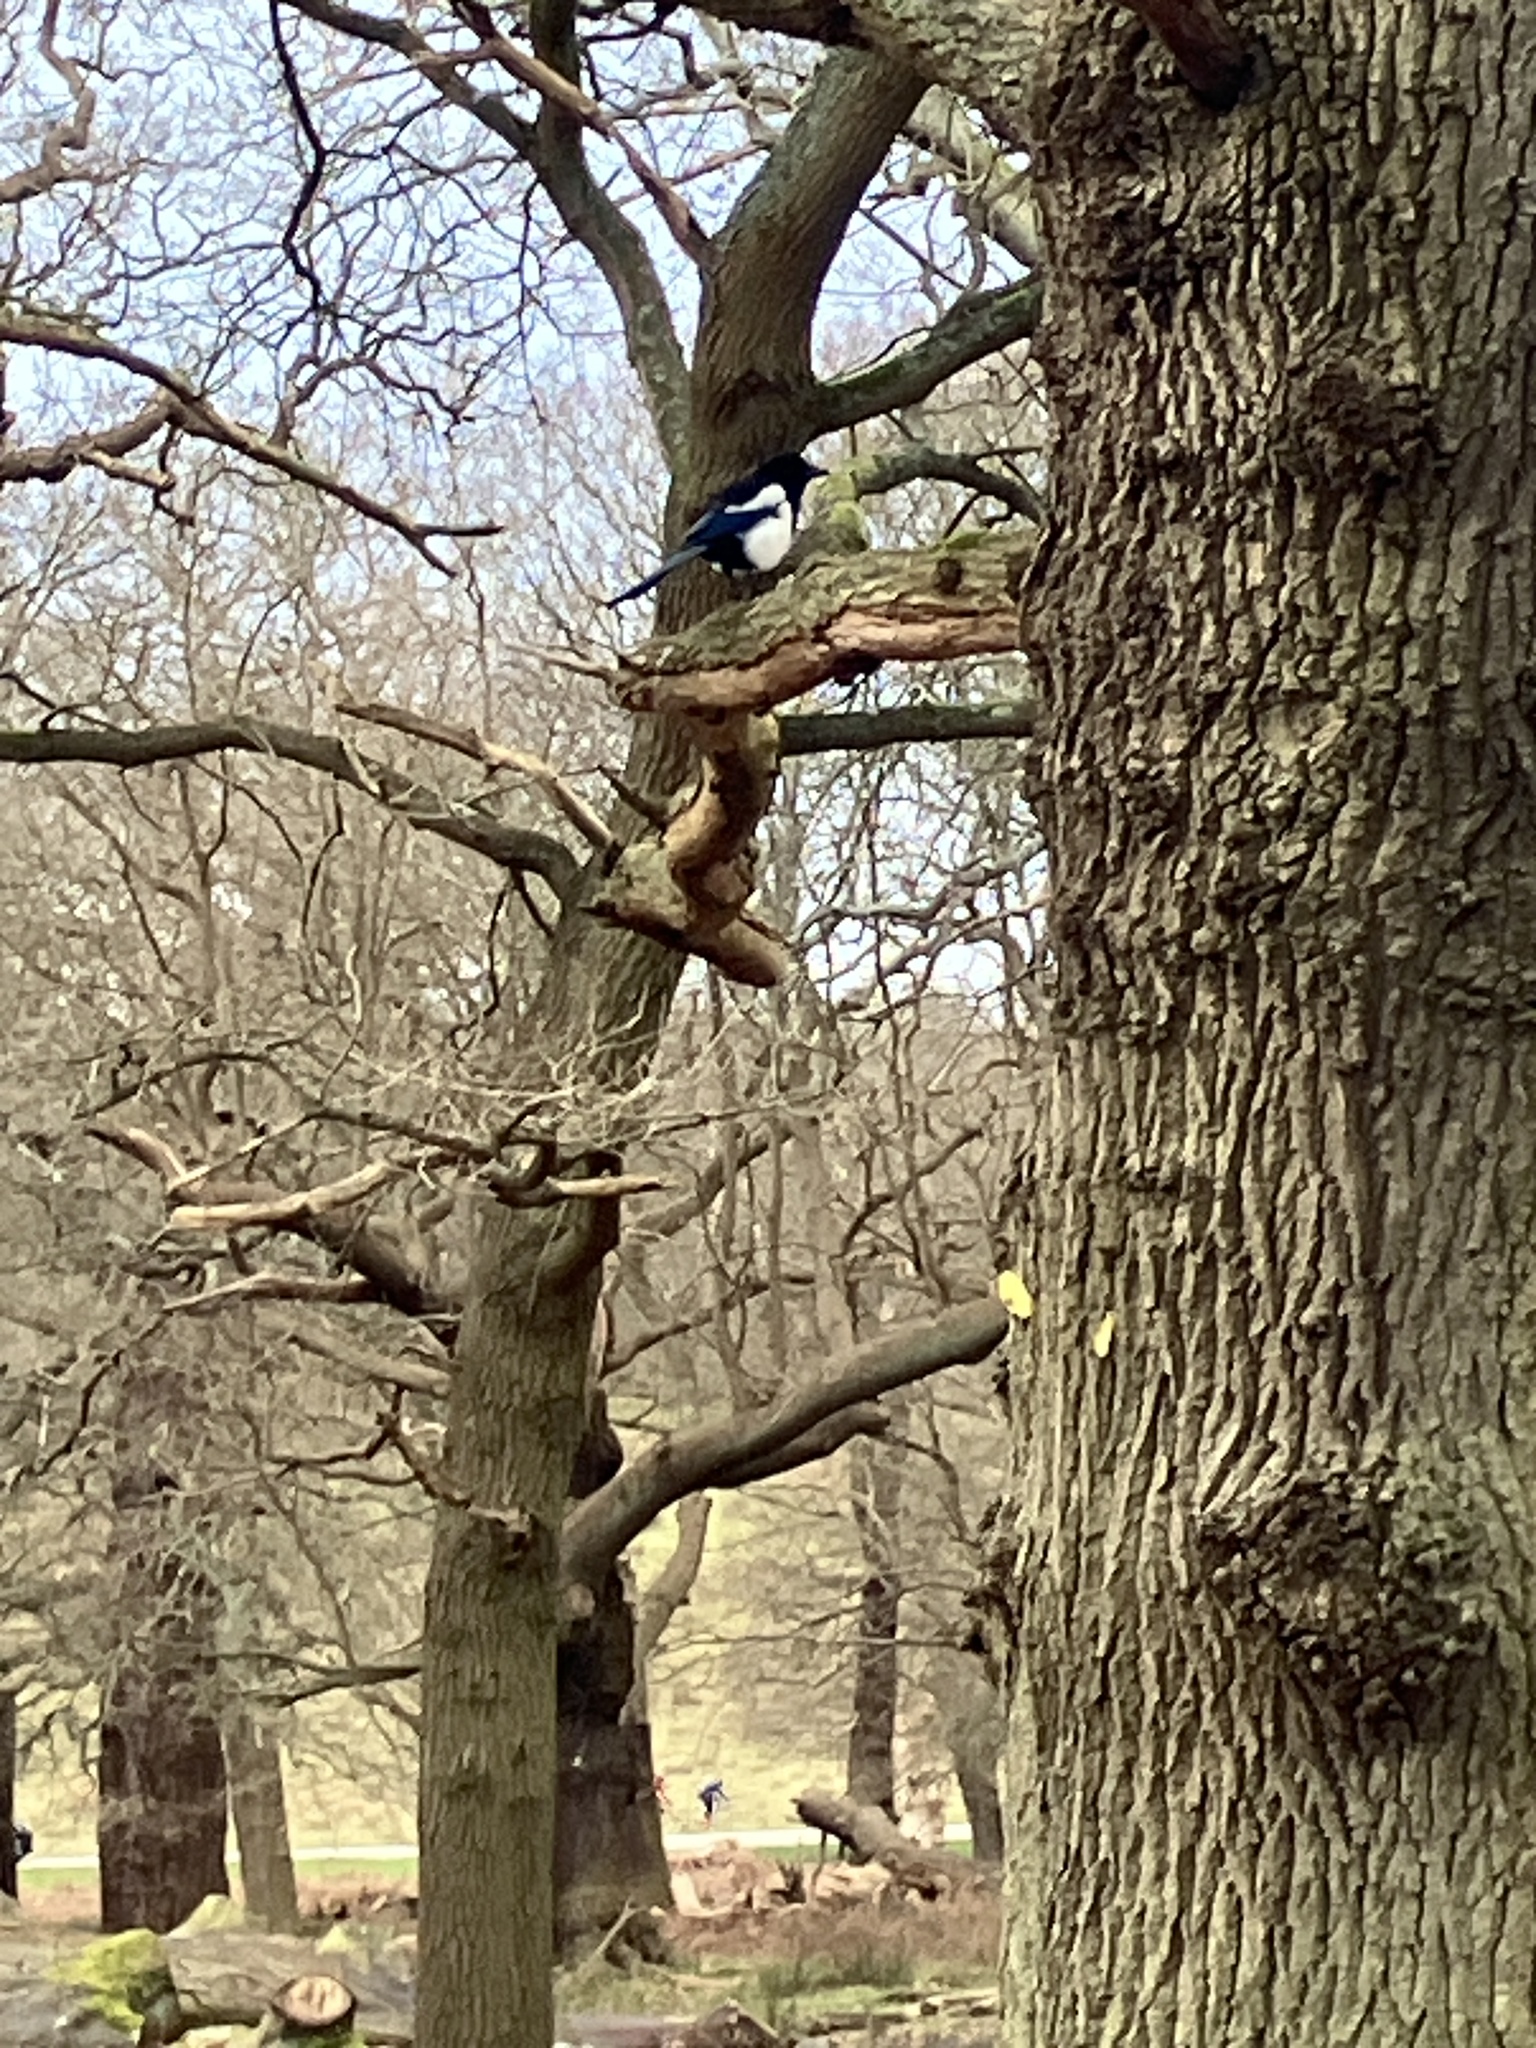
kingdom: Animalia
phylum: Chordata
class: Aves
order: Passeriformes
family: Corvidae
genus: Pica
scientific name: Pica pica
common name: Eurasian magpie
